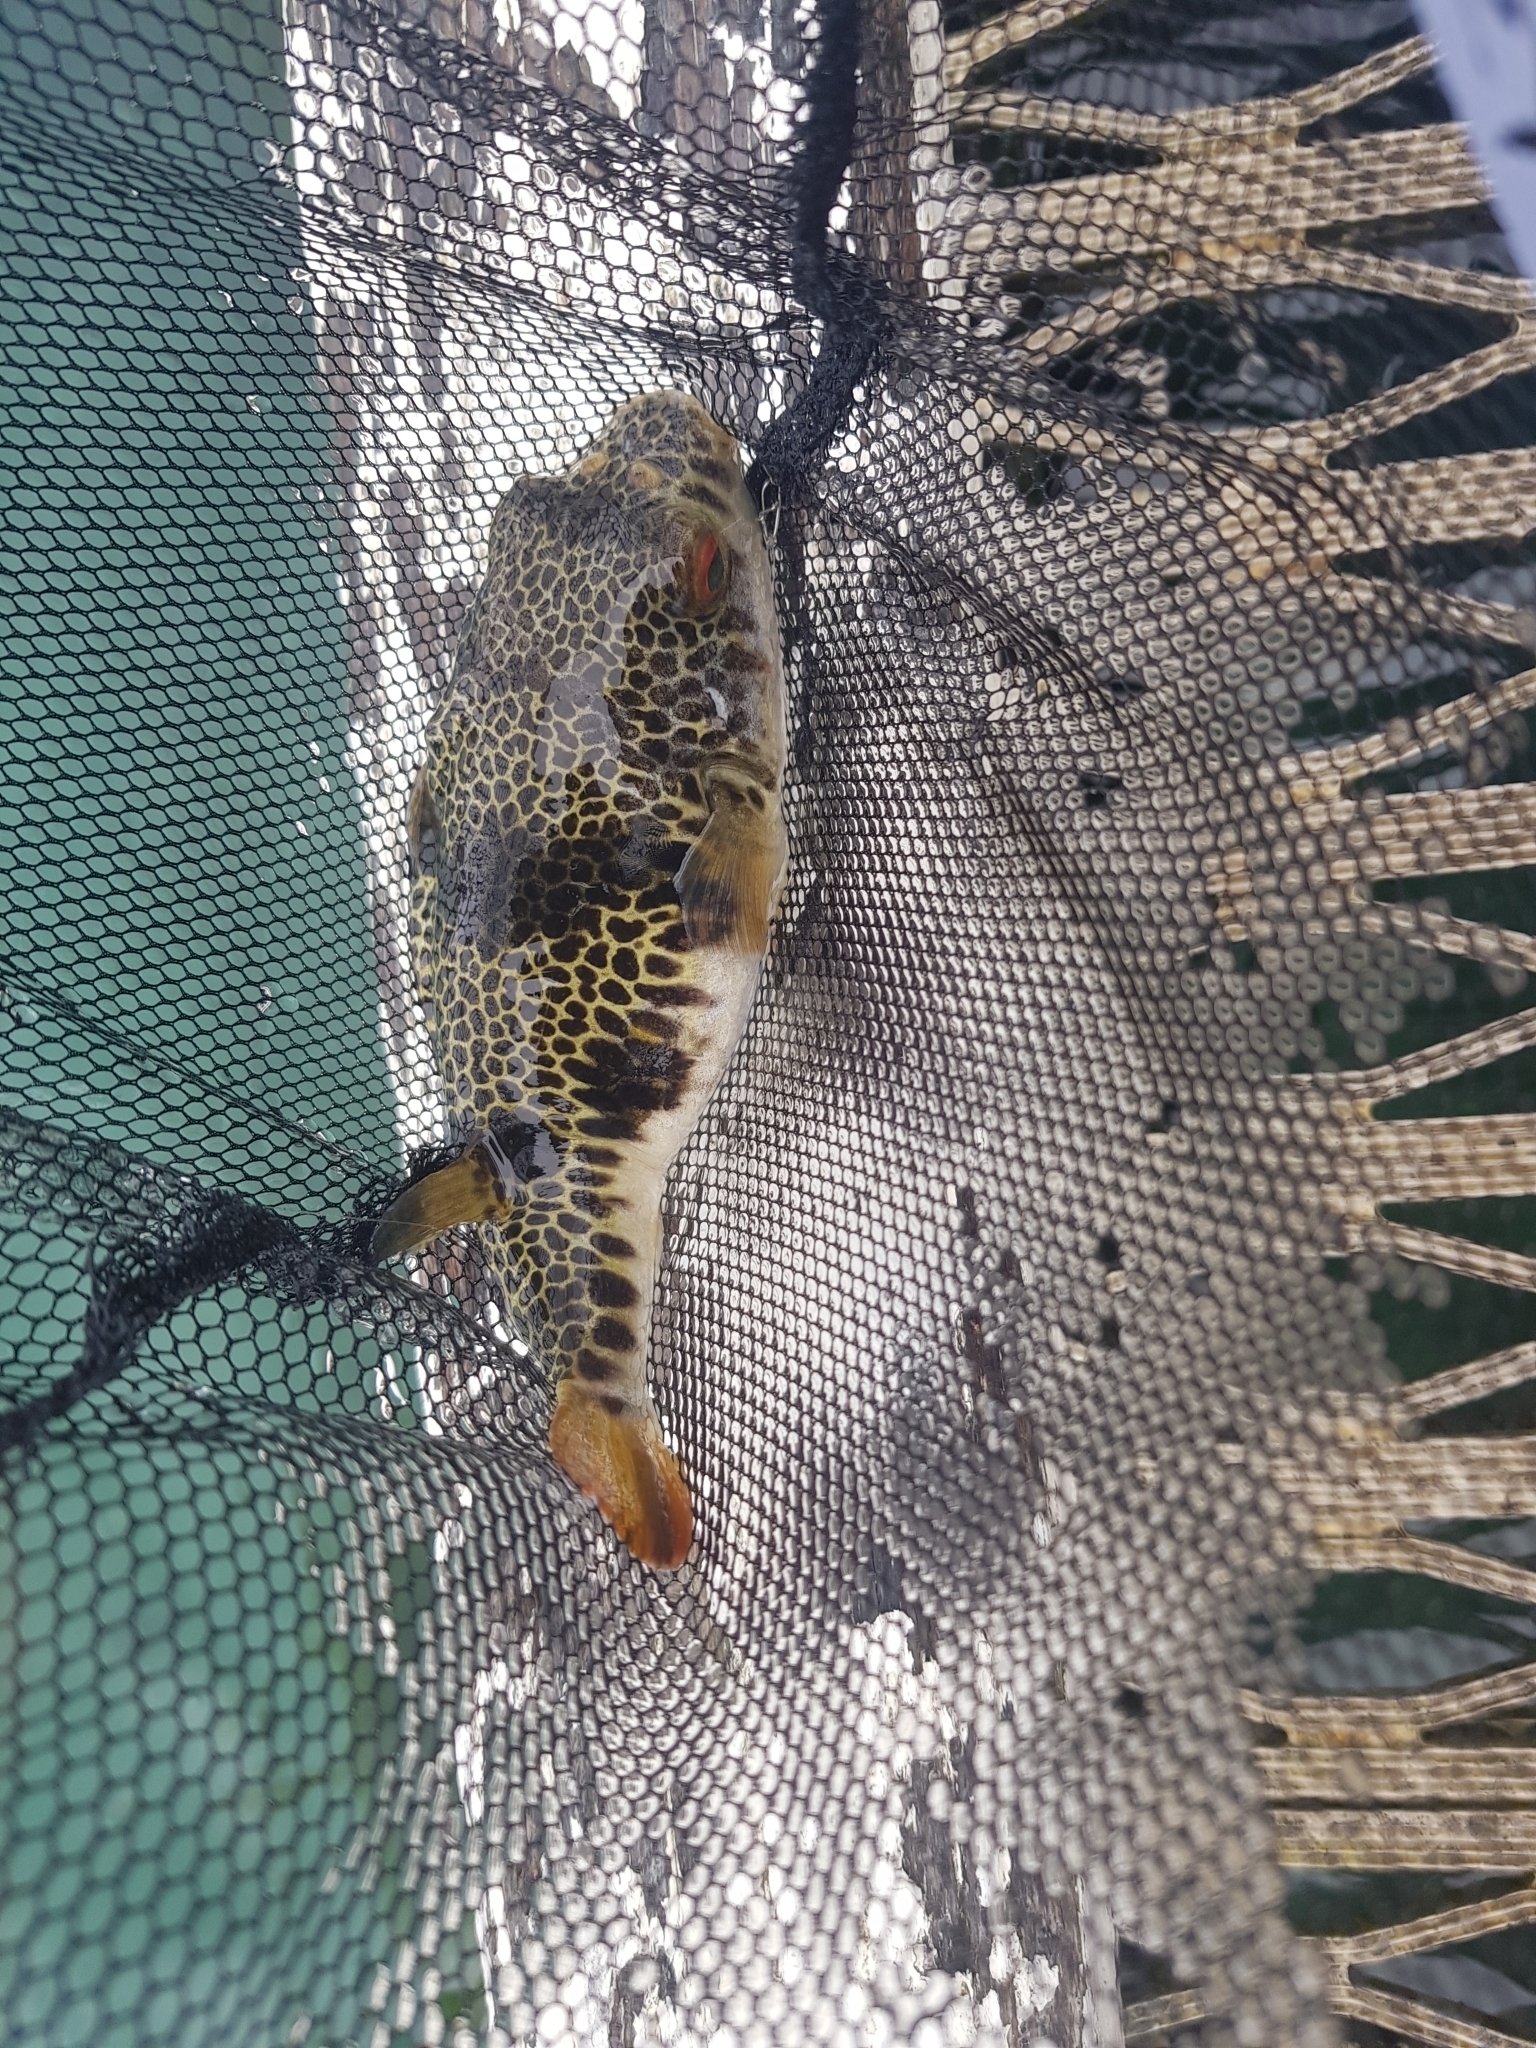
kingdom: Animalia
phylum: Chordata
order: Tetraodontiformes
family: Tetraodontidae
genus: Tetractenos
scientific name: Tetractenos glaber
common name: Smooth toadfish
